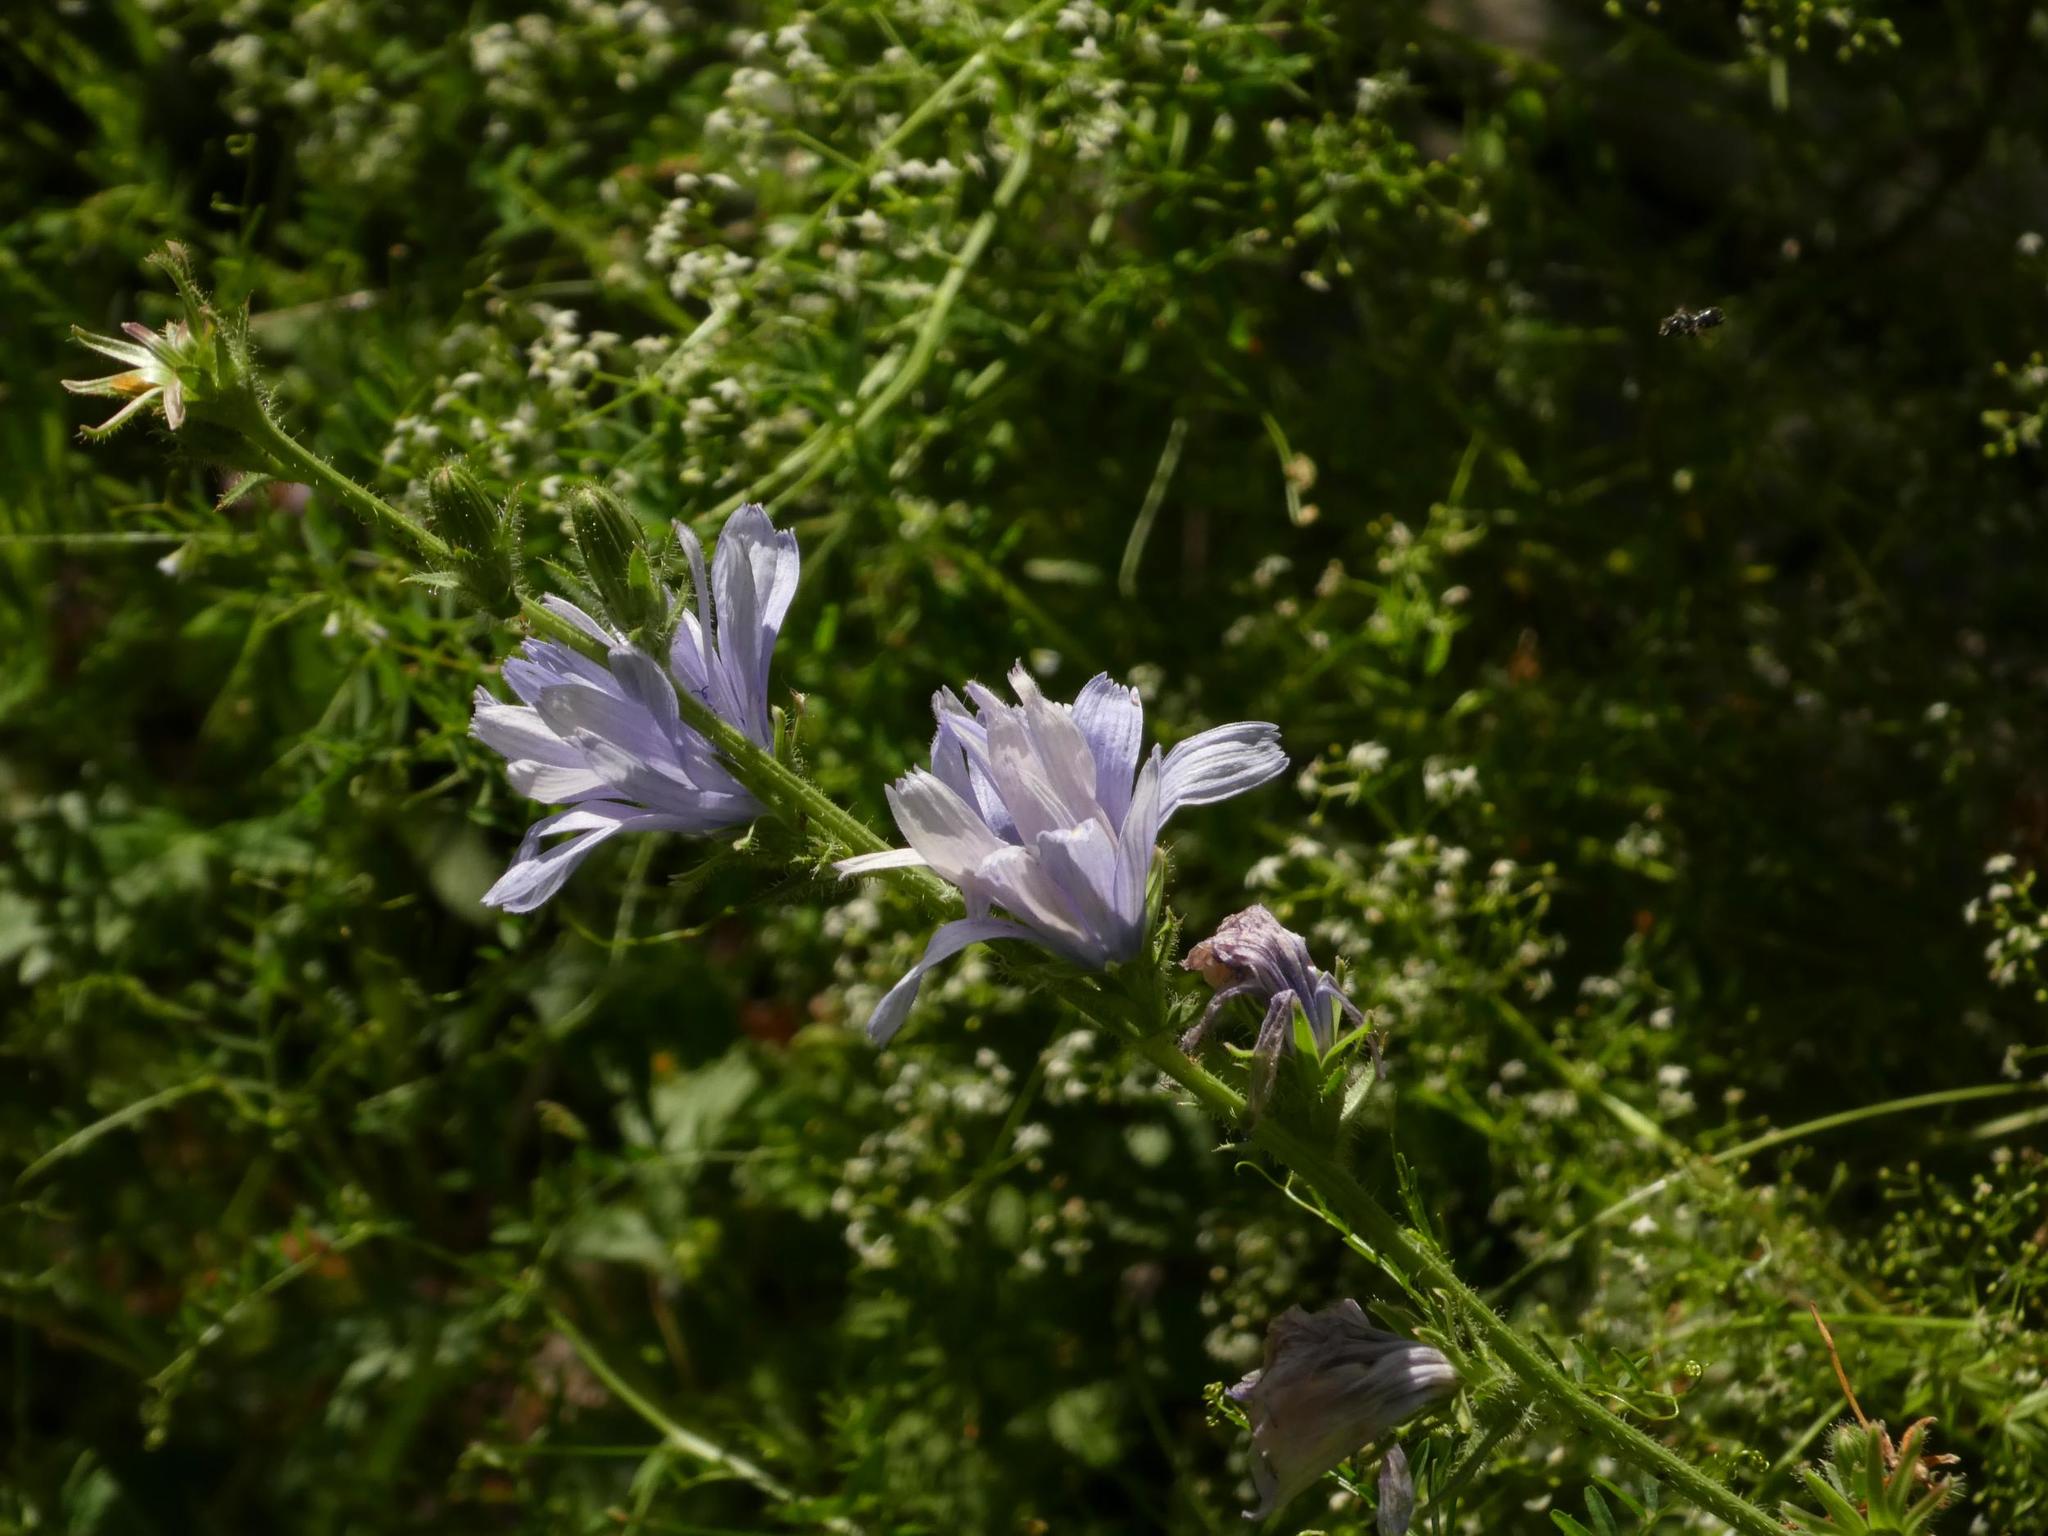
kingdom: Plantae
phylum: Tracheophyta
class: Magnoliopsida
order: Asterales
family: Asteraceae
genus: Cichorium
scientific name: Cichorium intybus
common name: Chicory
